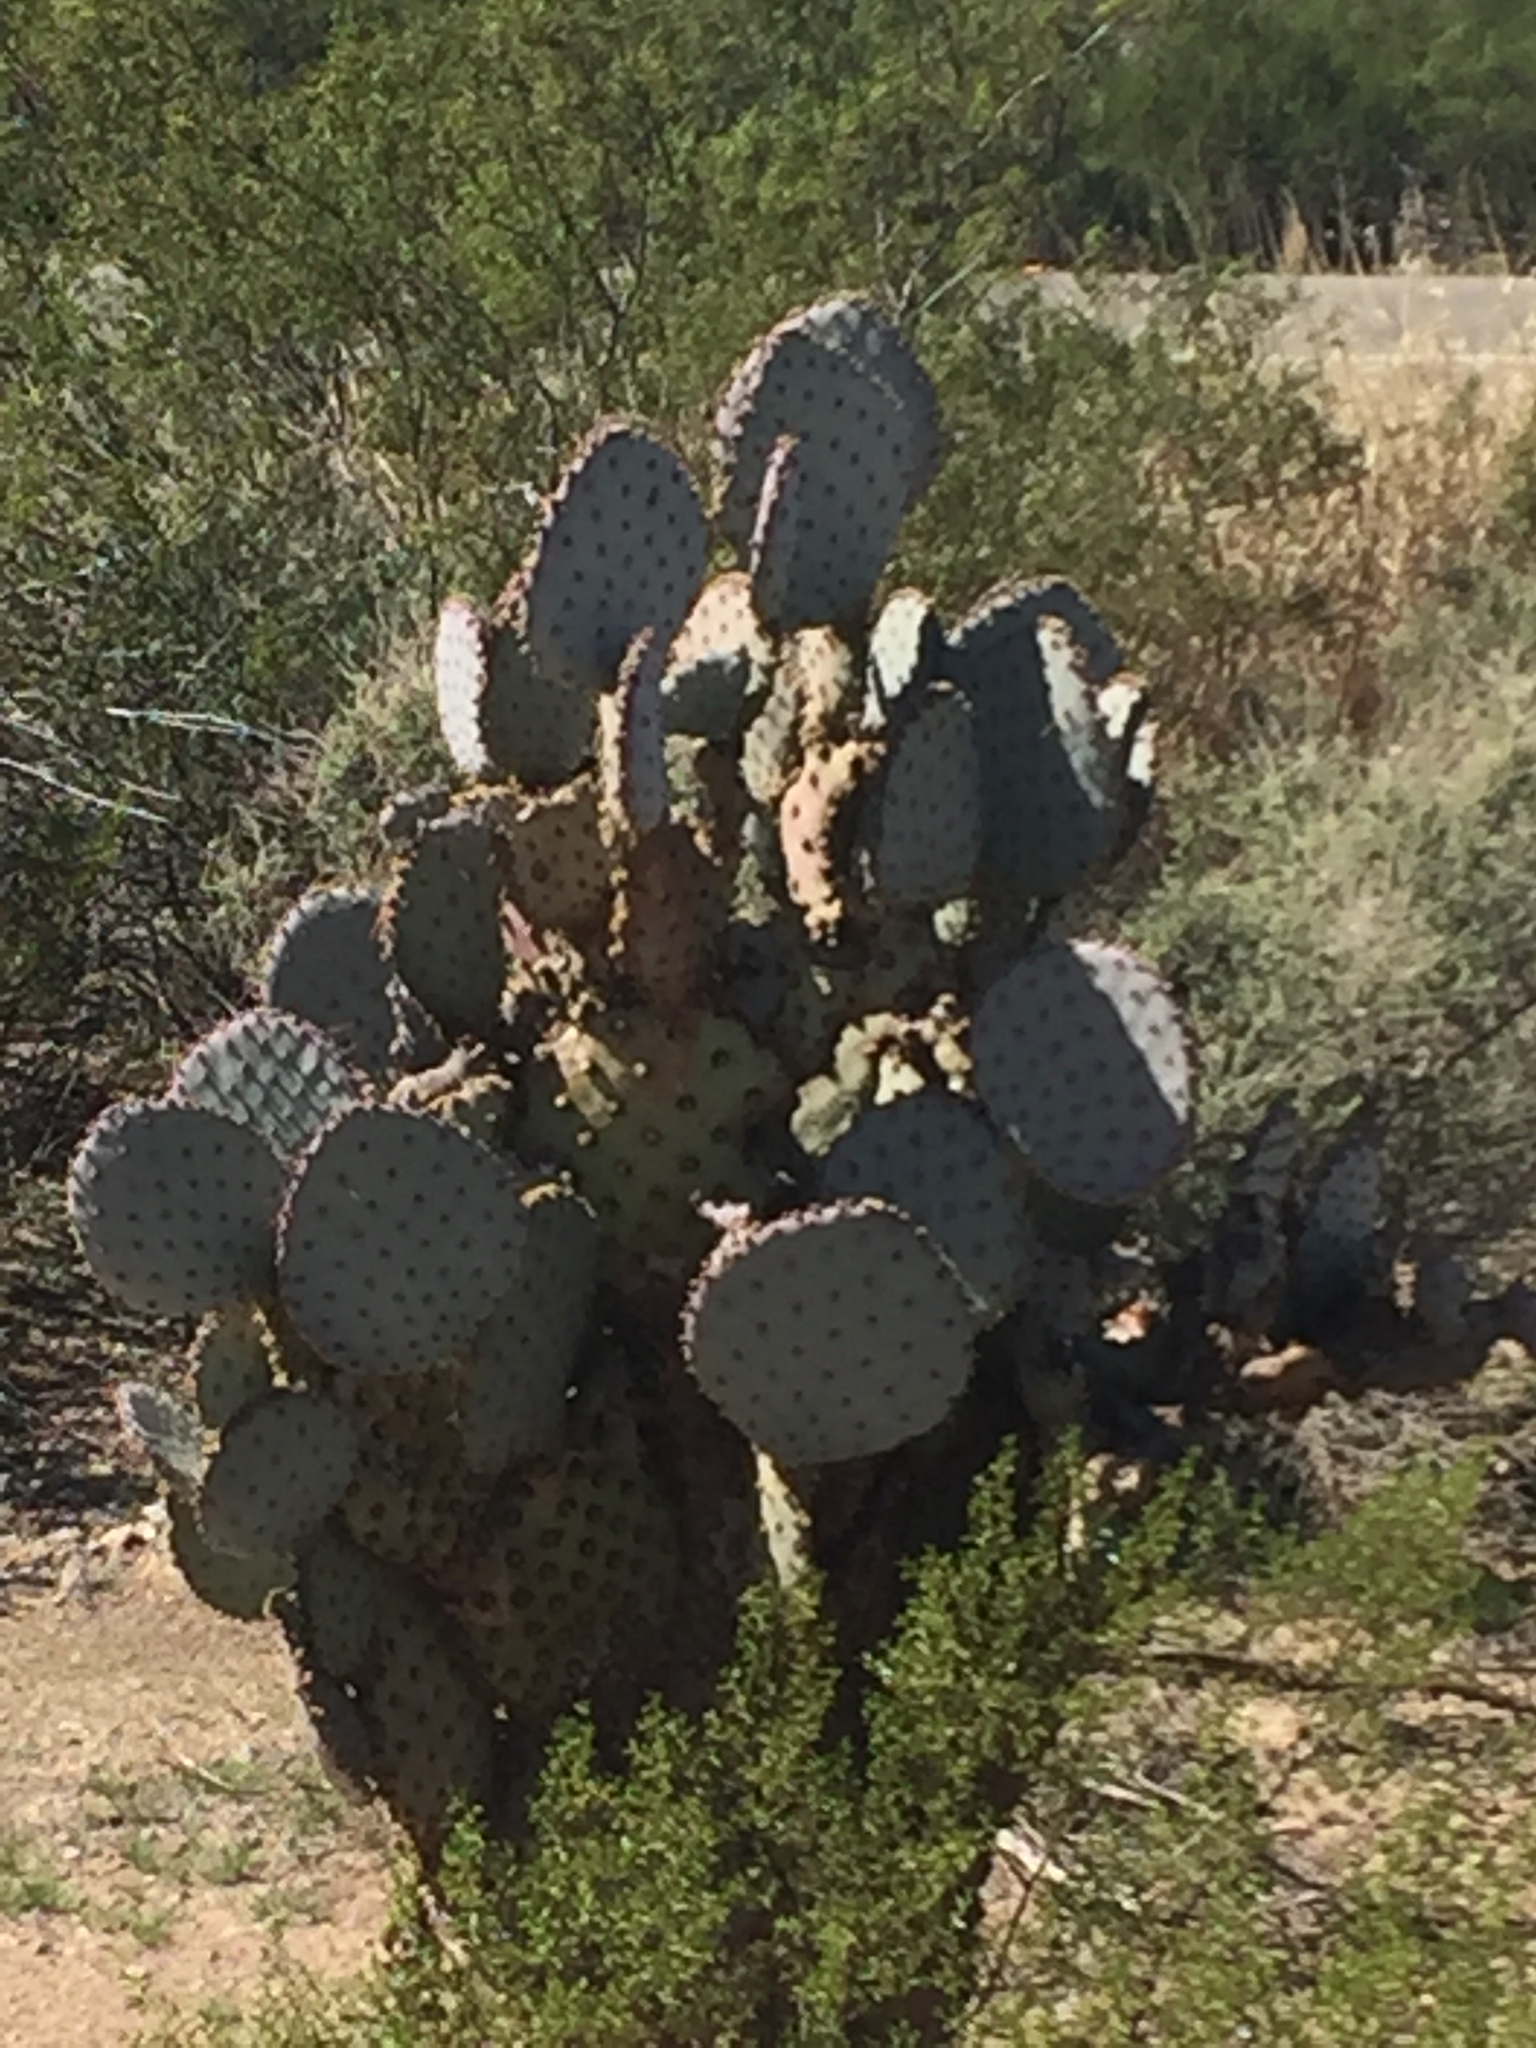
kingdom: Plantae
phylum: Tracheophyta
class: Magnoliopsida
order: Caryophyllales
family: Cactaceae
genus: Opuntia
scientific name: Opuntia gosseliniana
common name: Violet prickly-pear
